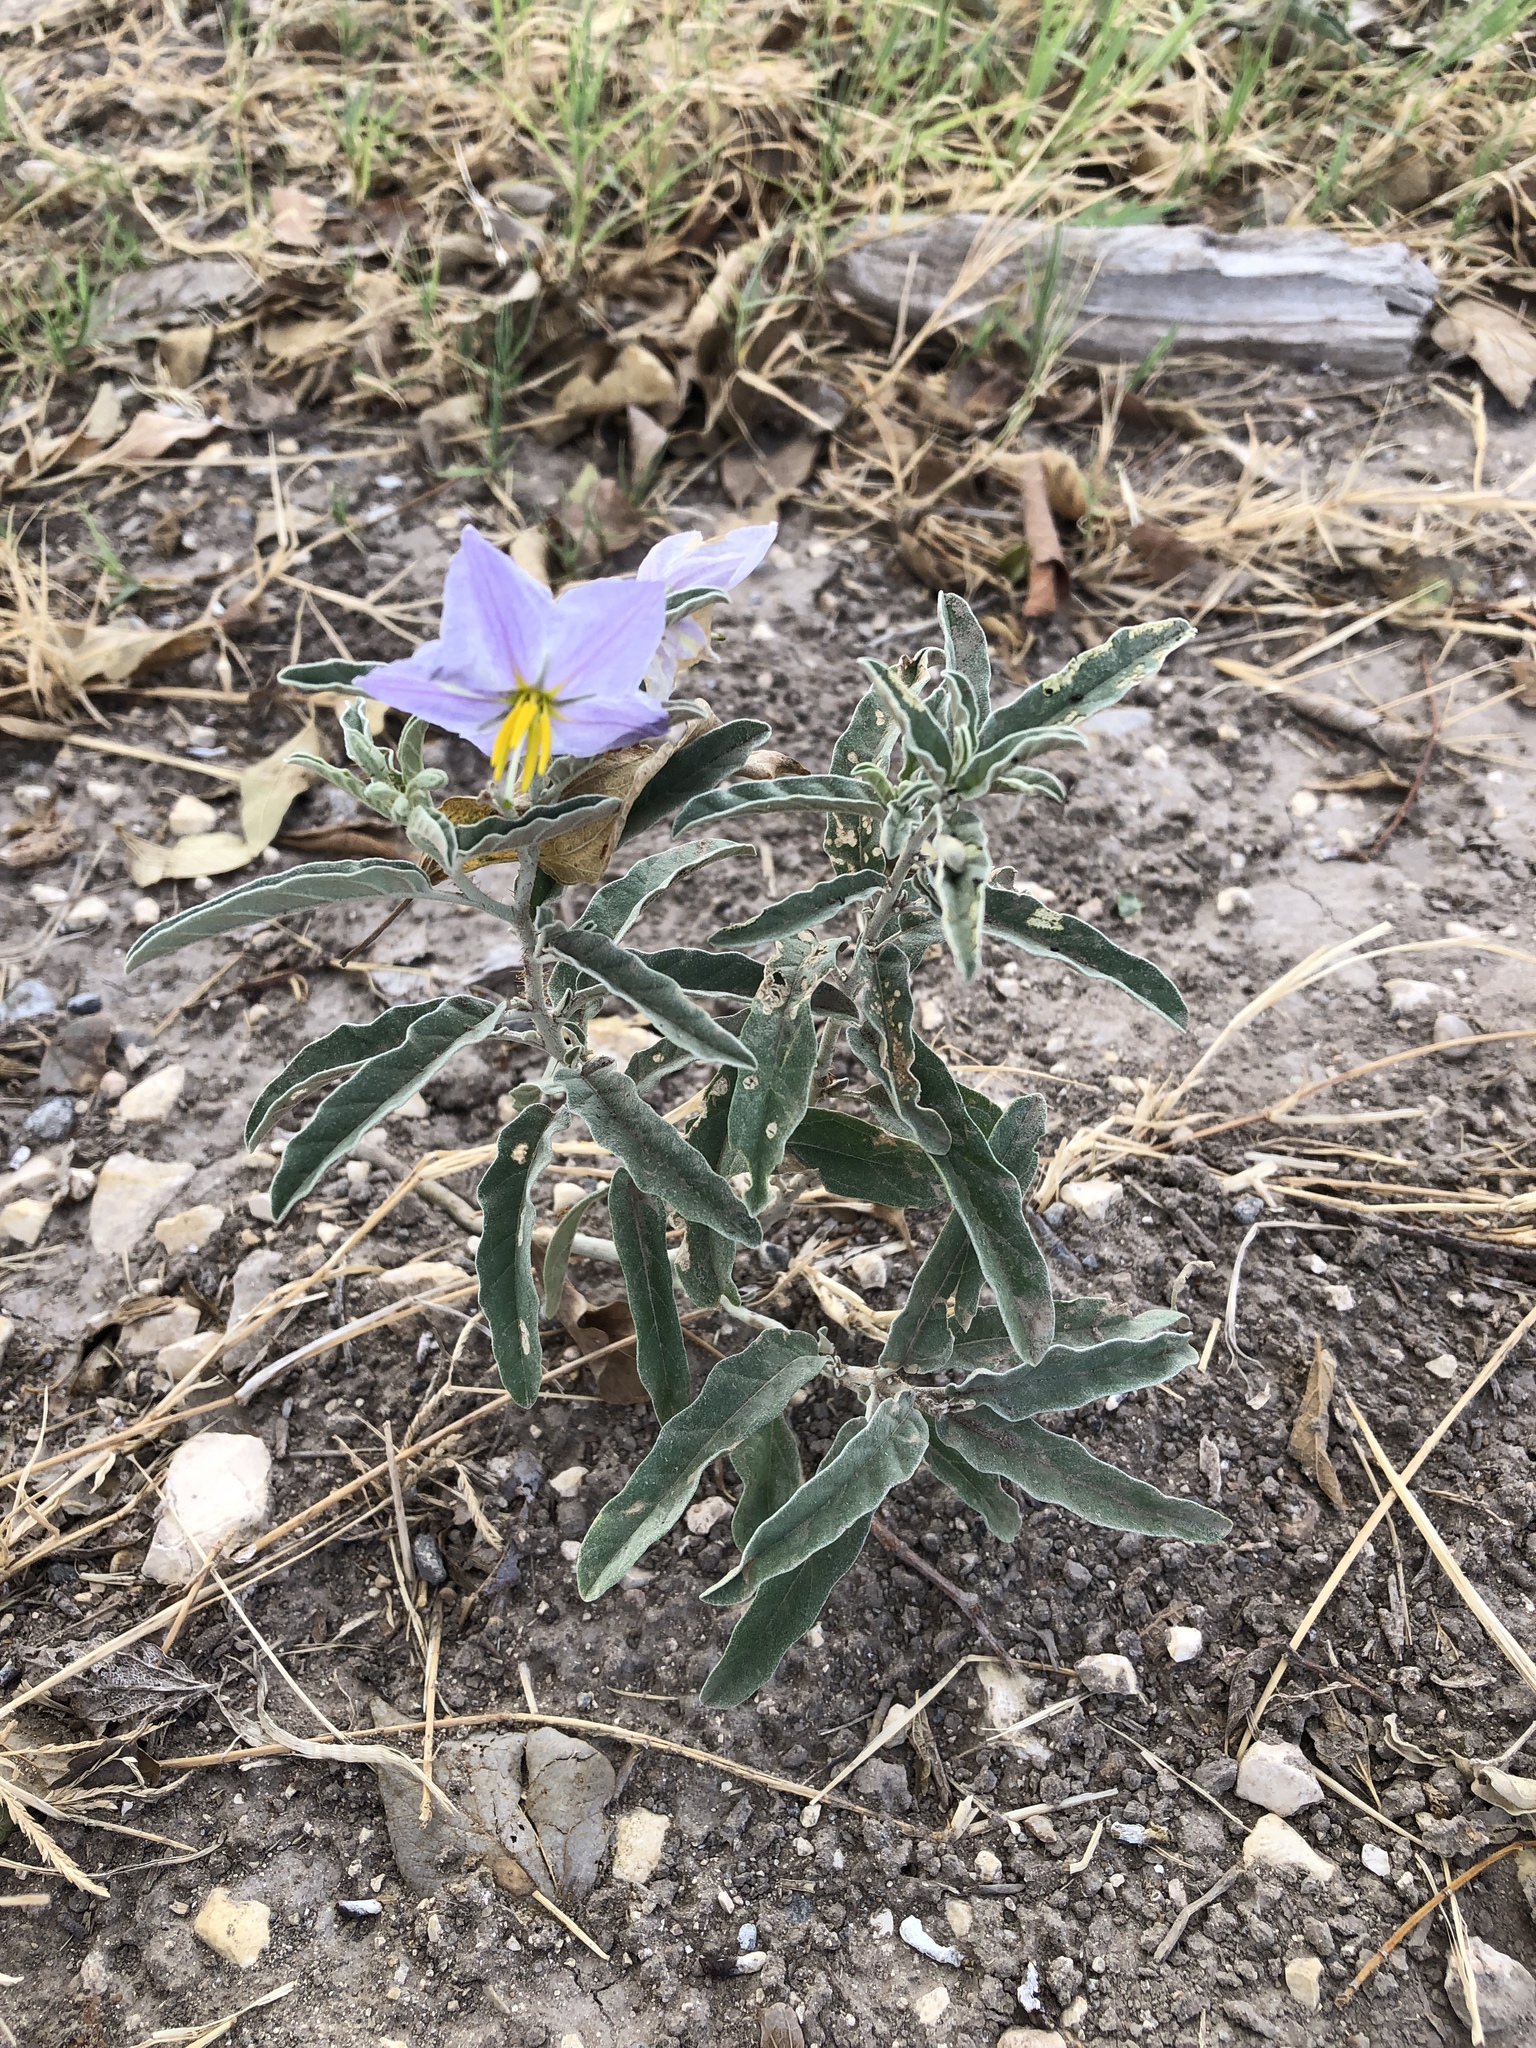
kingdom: Plantae
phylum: Tracheophyta
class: Magnoliopsida
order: Solanales
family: Solanaceae
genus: Solanum
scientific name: Solanum elaeagnifolium
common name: Silverleaf nightshade
